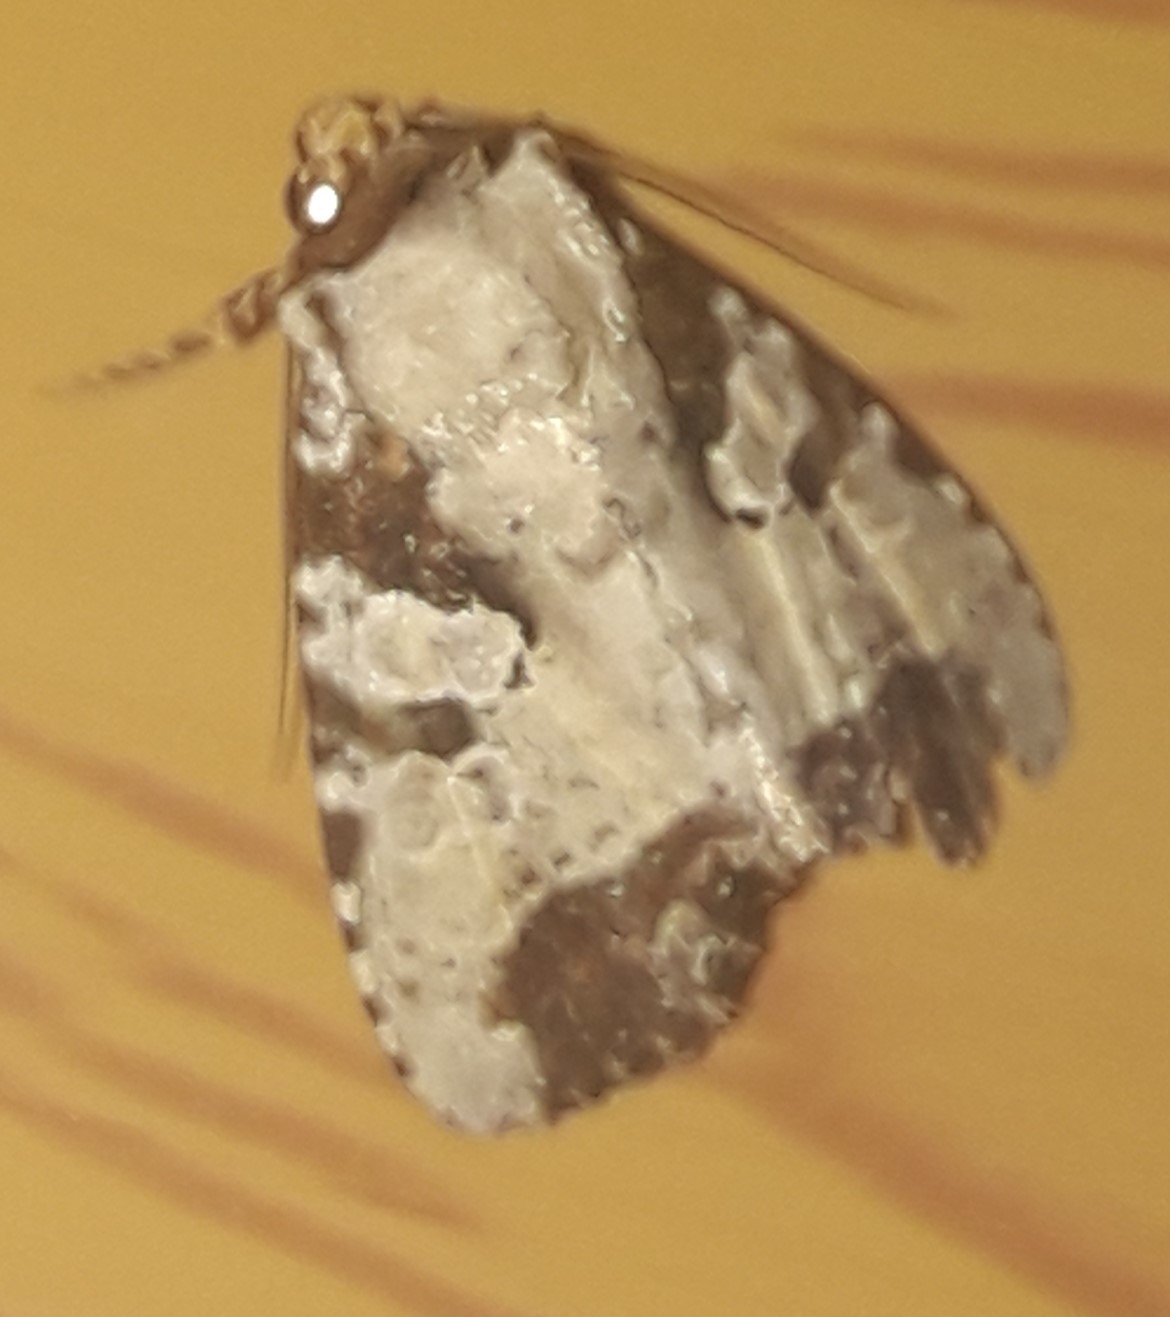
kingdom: Animalia
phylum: Arthropoda
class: Insecta
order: Lepidoptera
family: Noctuidae
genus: Condica
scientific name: Condica hippia
